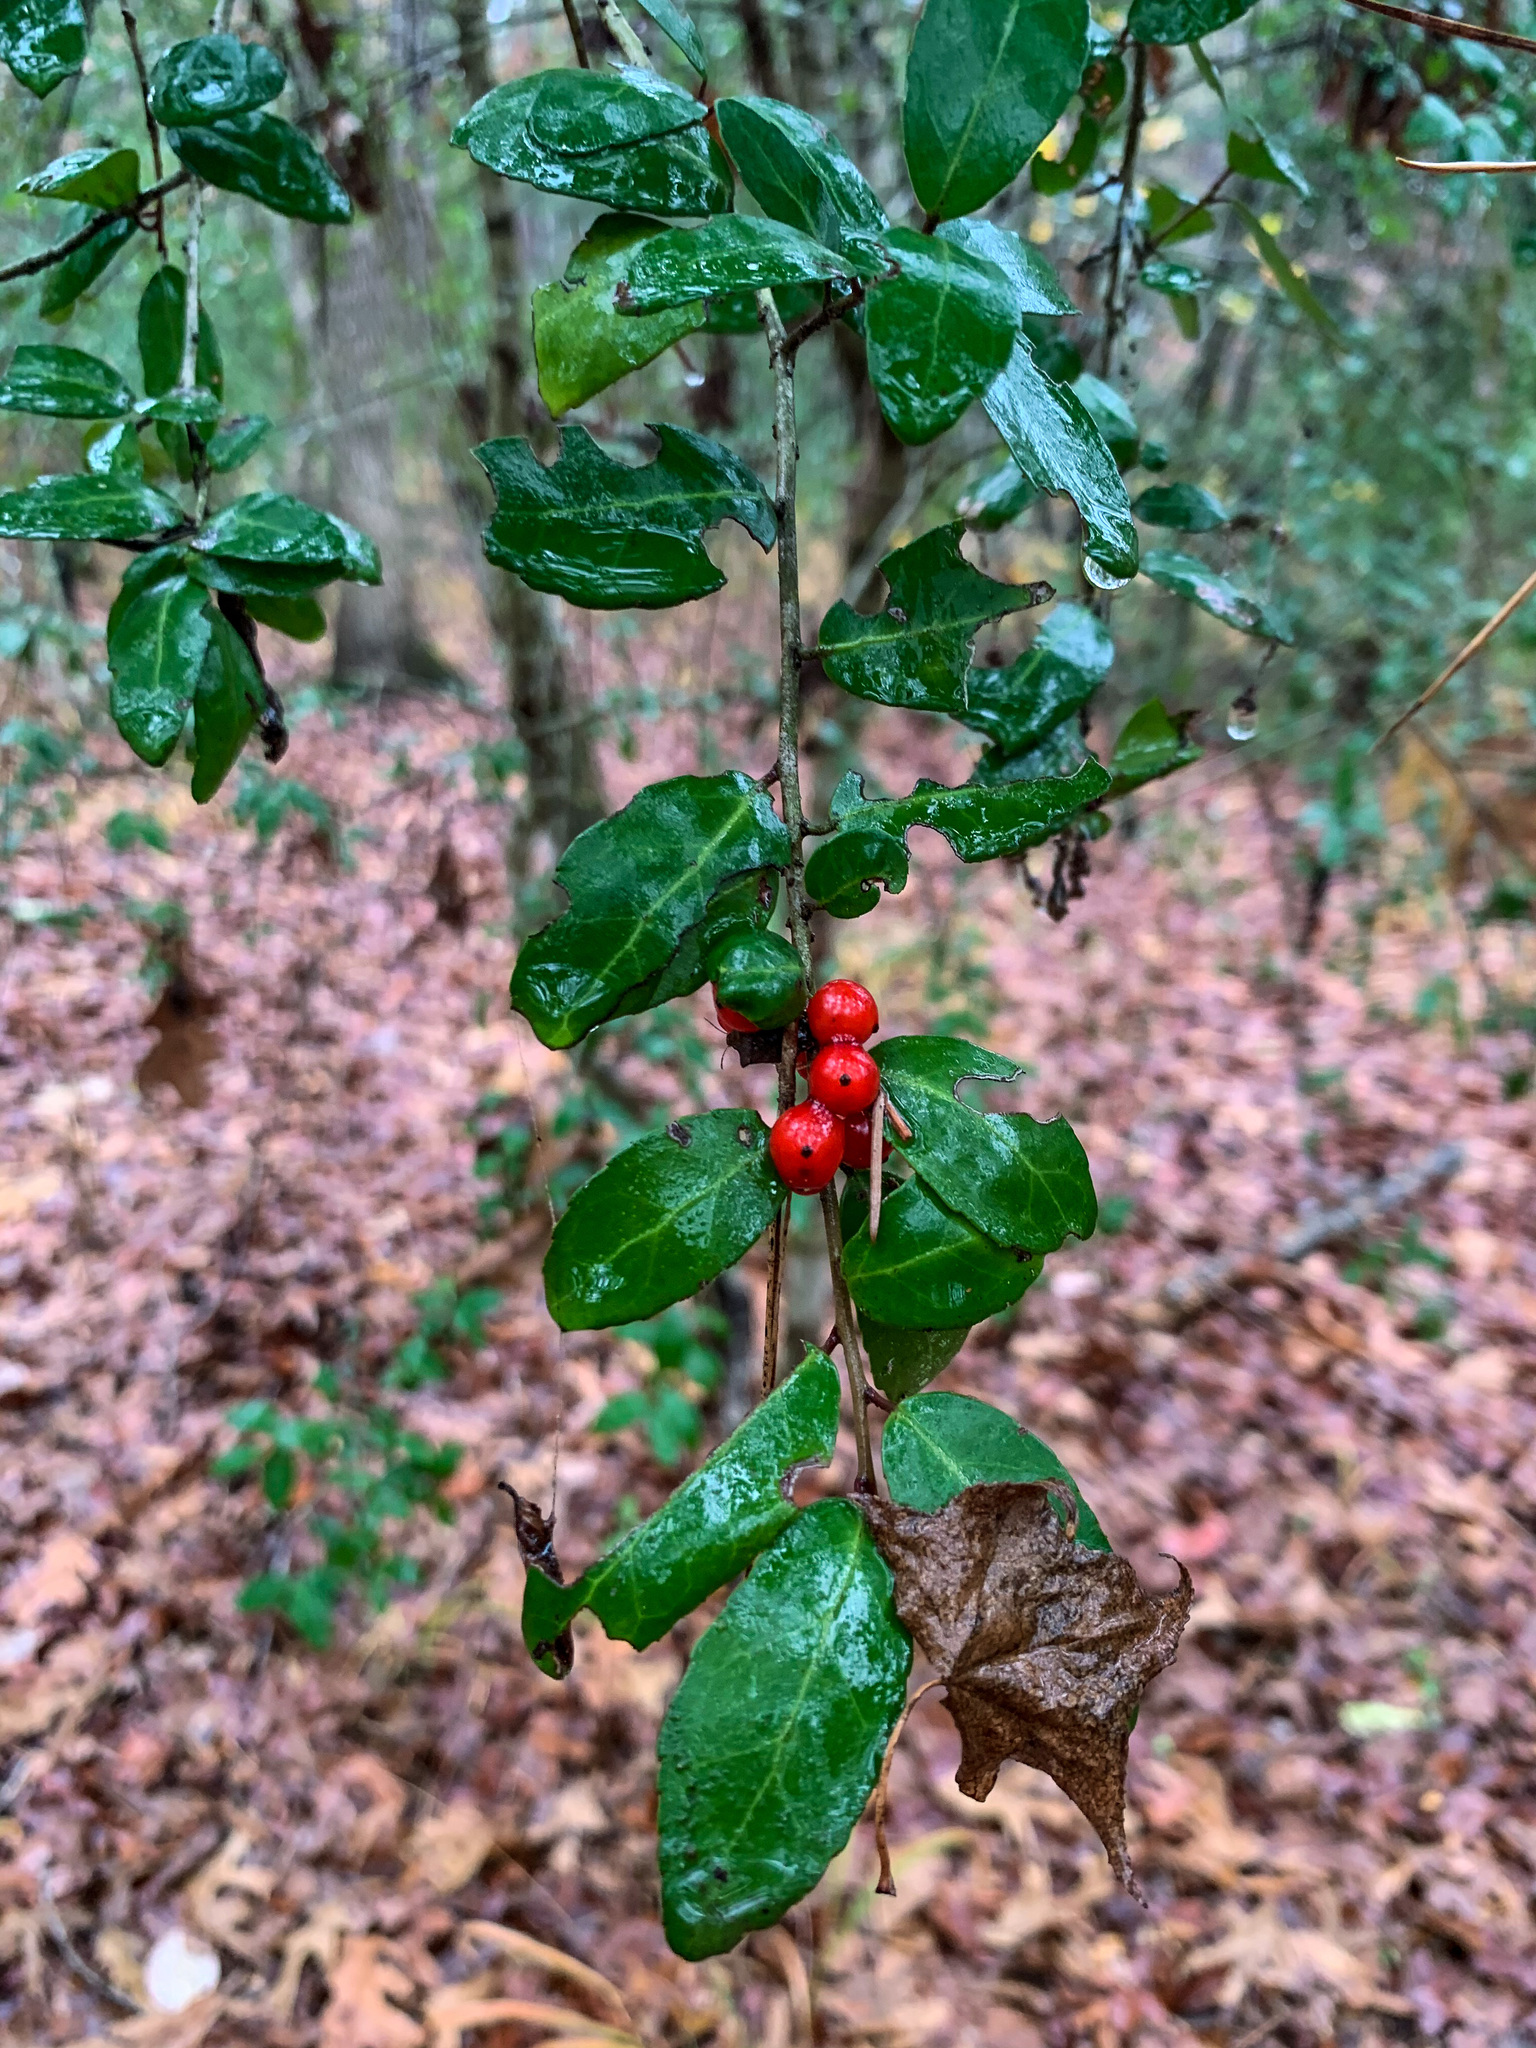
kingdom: Plantae
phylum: Tracheophyta
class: Magnoliopsida
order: Aquifoliales
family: Aquifoliaceae
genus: Ilex
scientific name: Ilex vomitoria
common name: Yaupon holly
